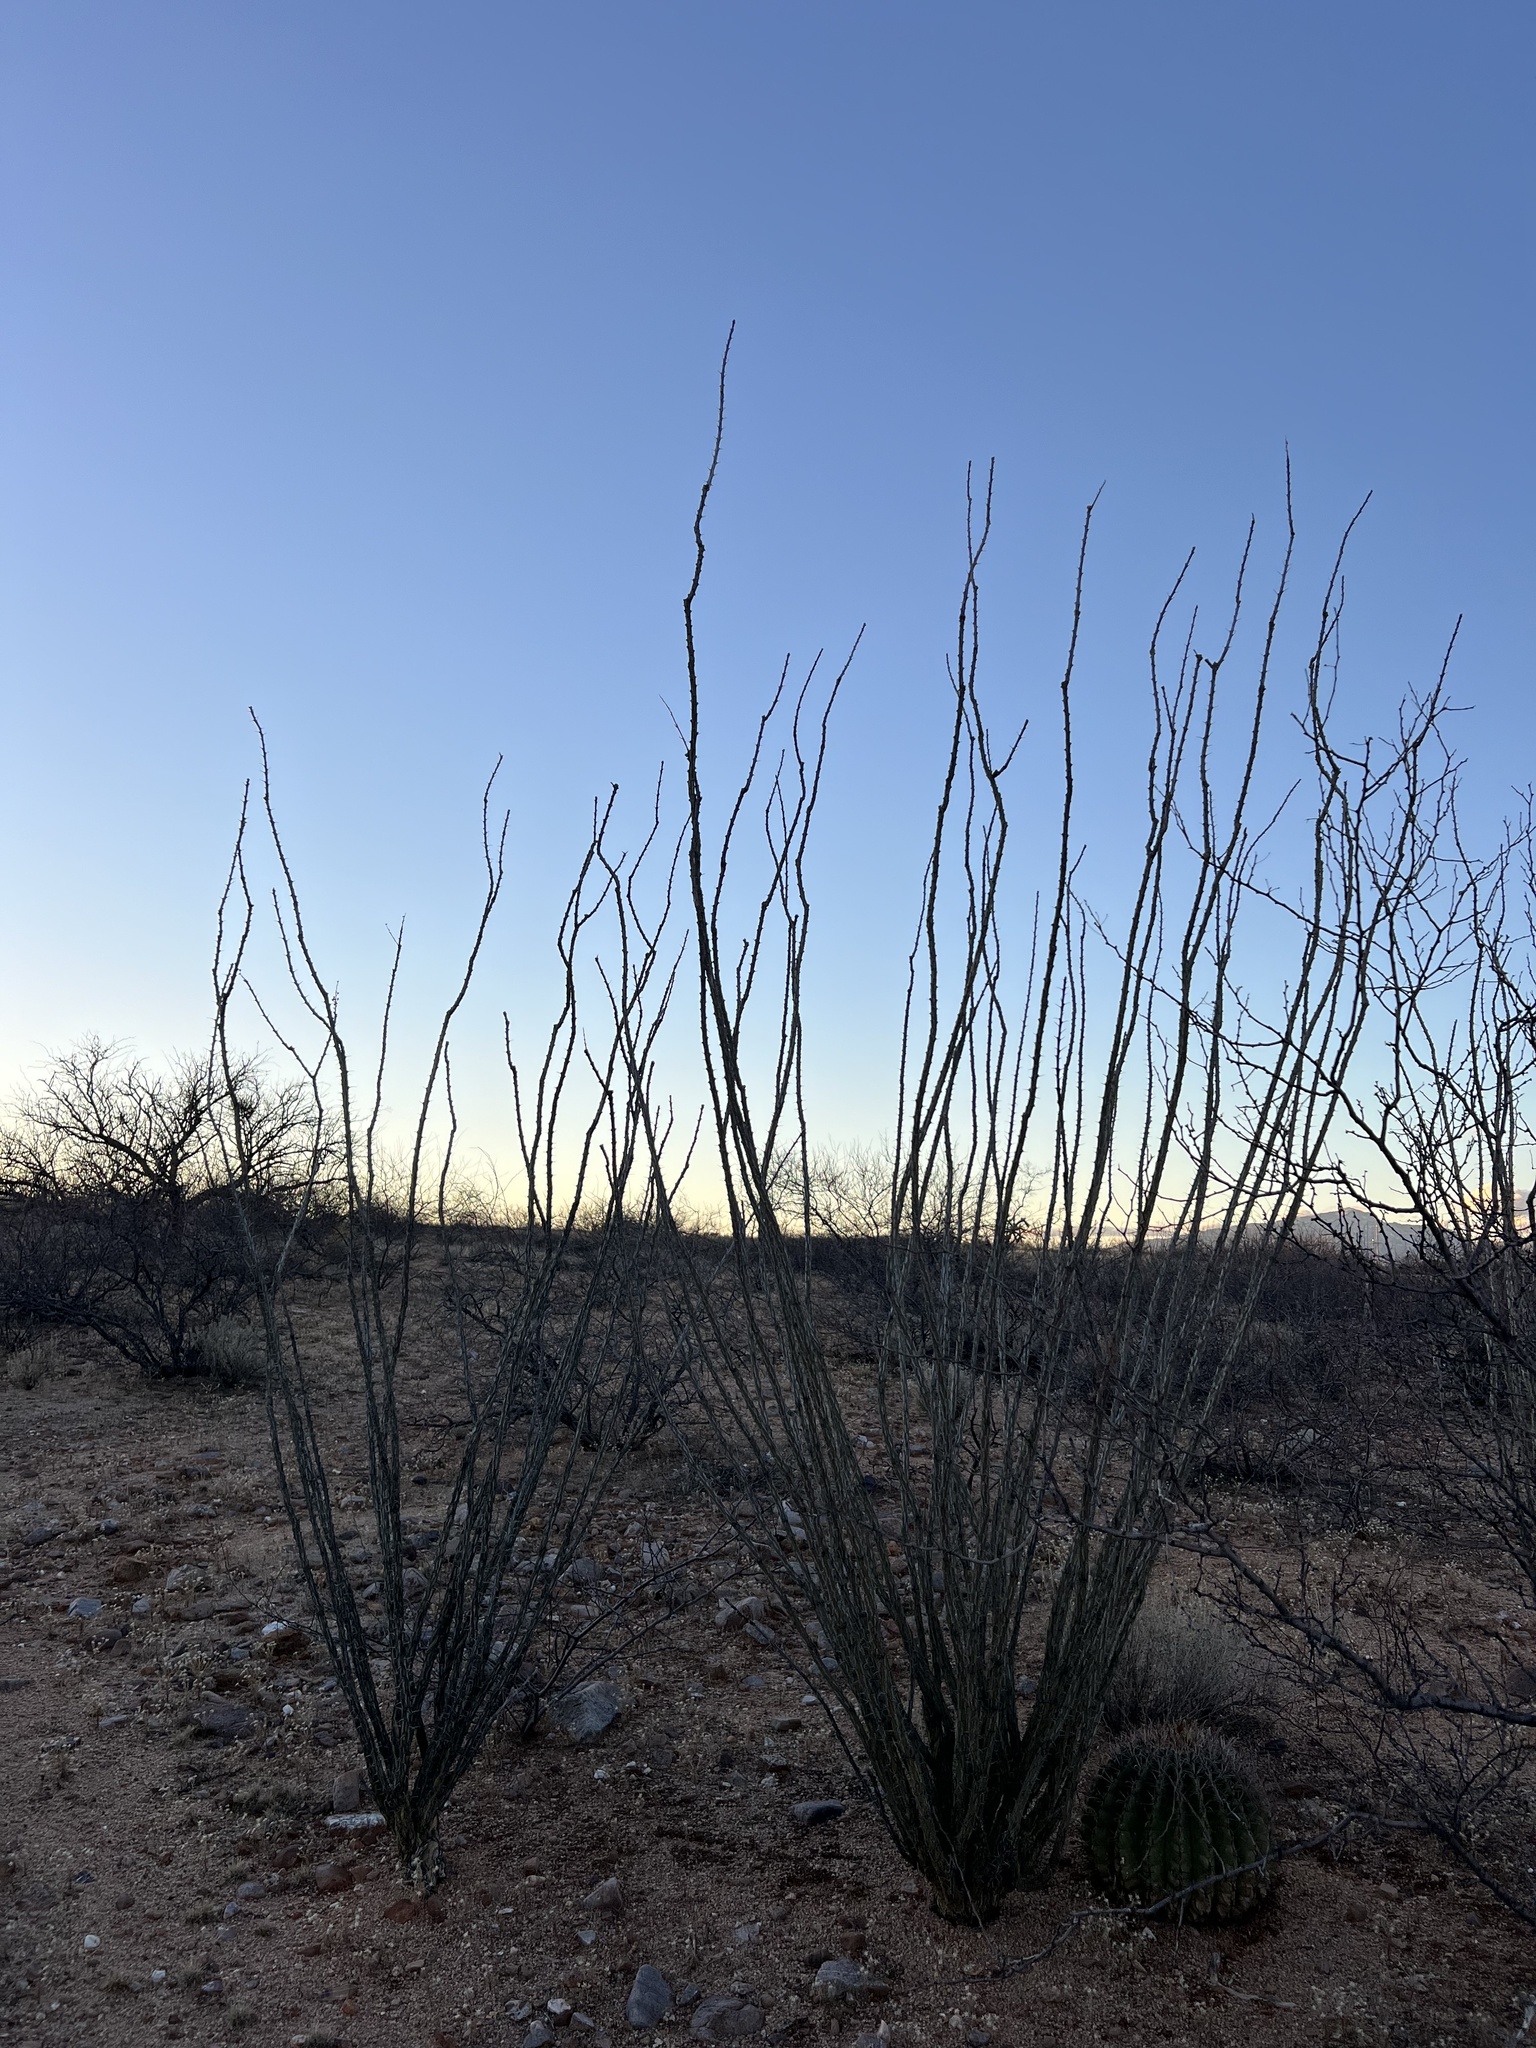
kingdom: Plantae
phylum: Tracheophyta
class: Magnoliopsida
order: Ericales
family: Fouquieriaceae
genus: Fouquieria
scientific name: Fouquieria splendens
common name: Vine-cactus
